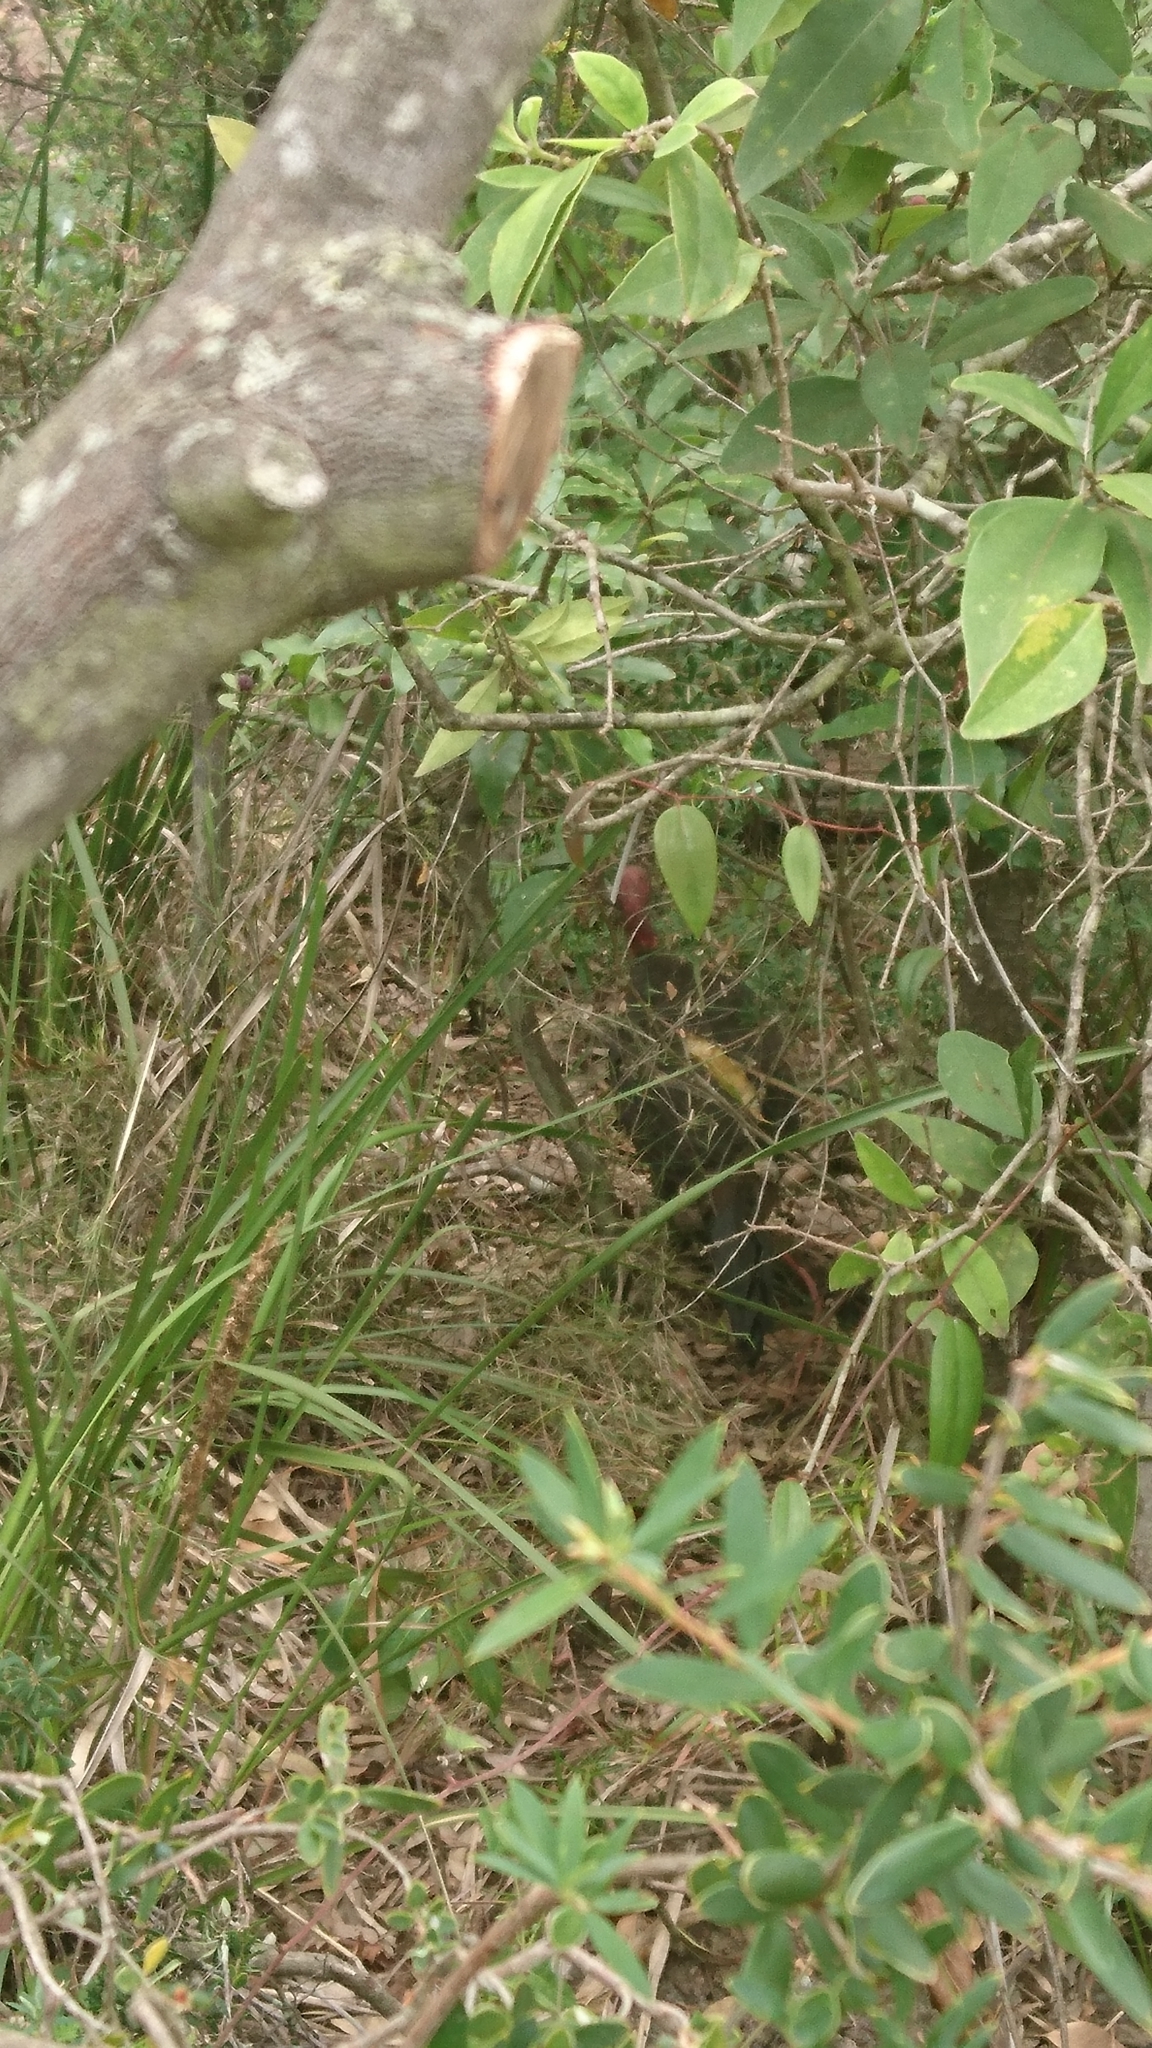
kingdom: Animalia
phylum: Chordata
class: Aves
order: Galliformes
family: Megapodiidae
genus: Alectura
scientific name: Alectura lathami
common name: Australian brushturkey
